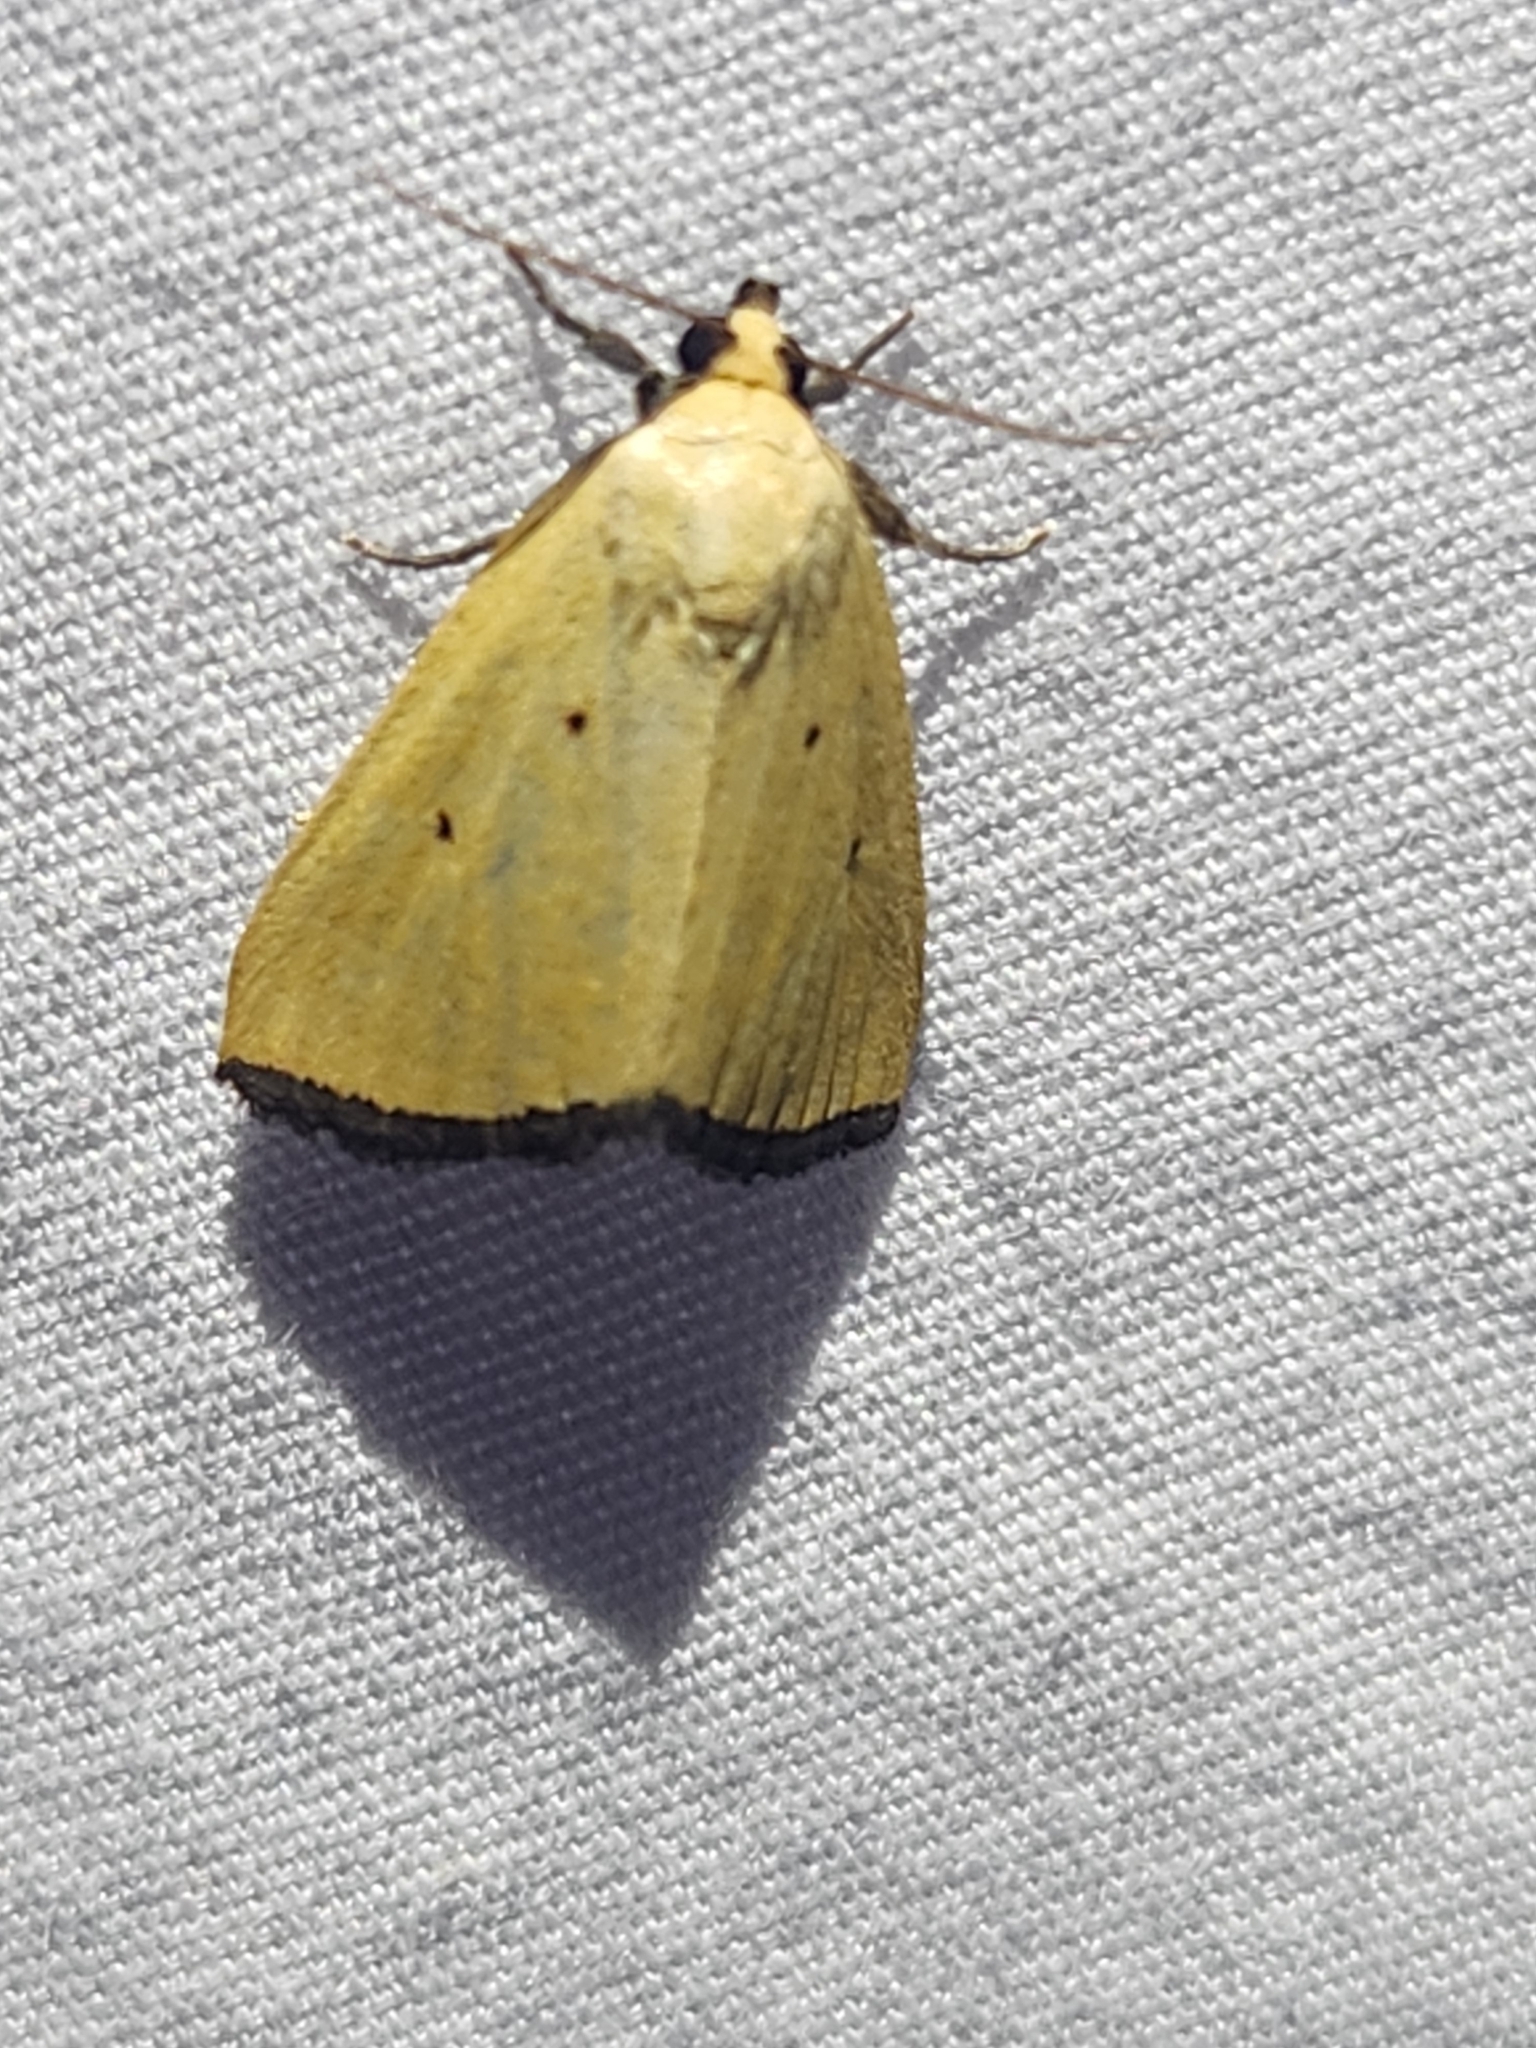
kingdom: Animalia
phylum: Arthropoda
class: Insecta
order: Lepidoptera
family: Noctuidae
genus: Marimatha
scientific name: Marimatha nigrofimbria
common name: Black-bordered lemon moth
